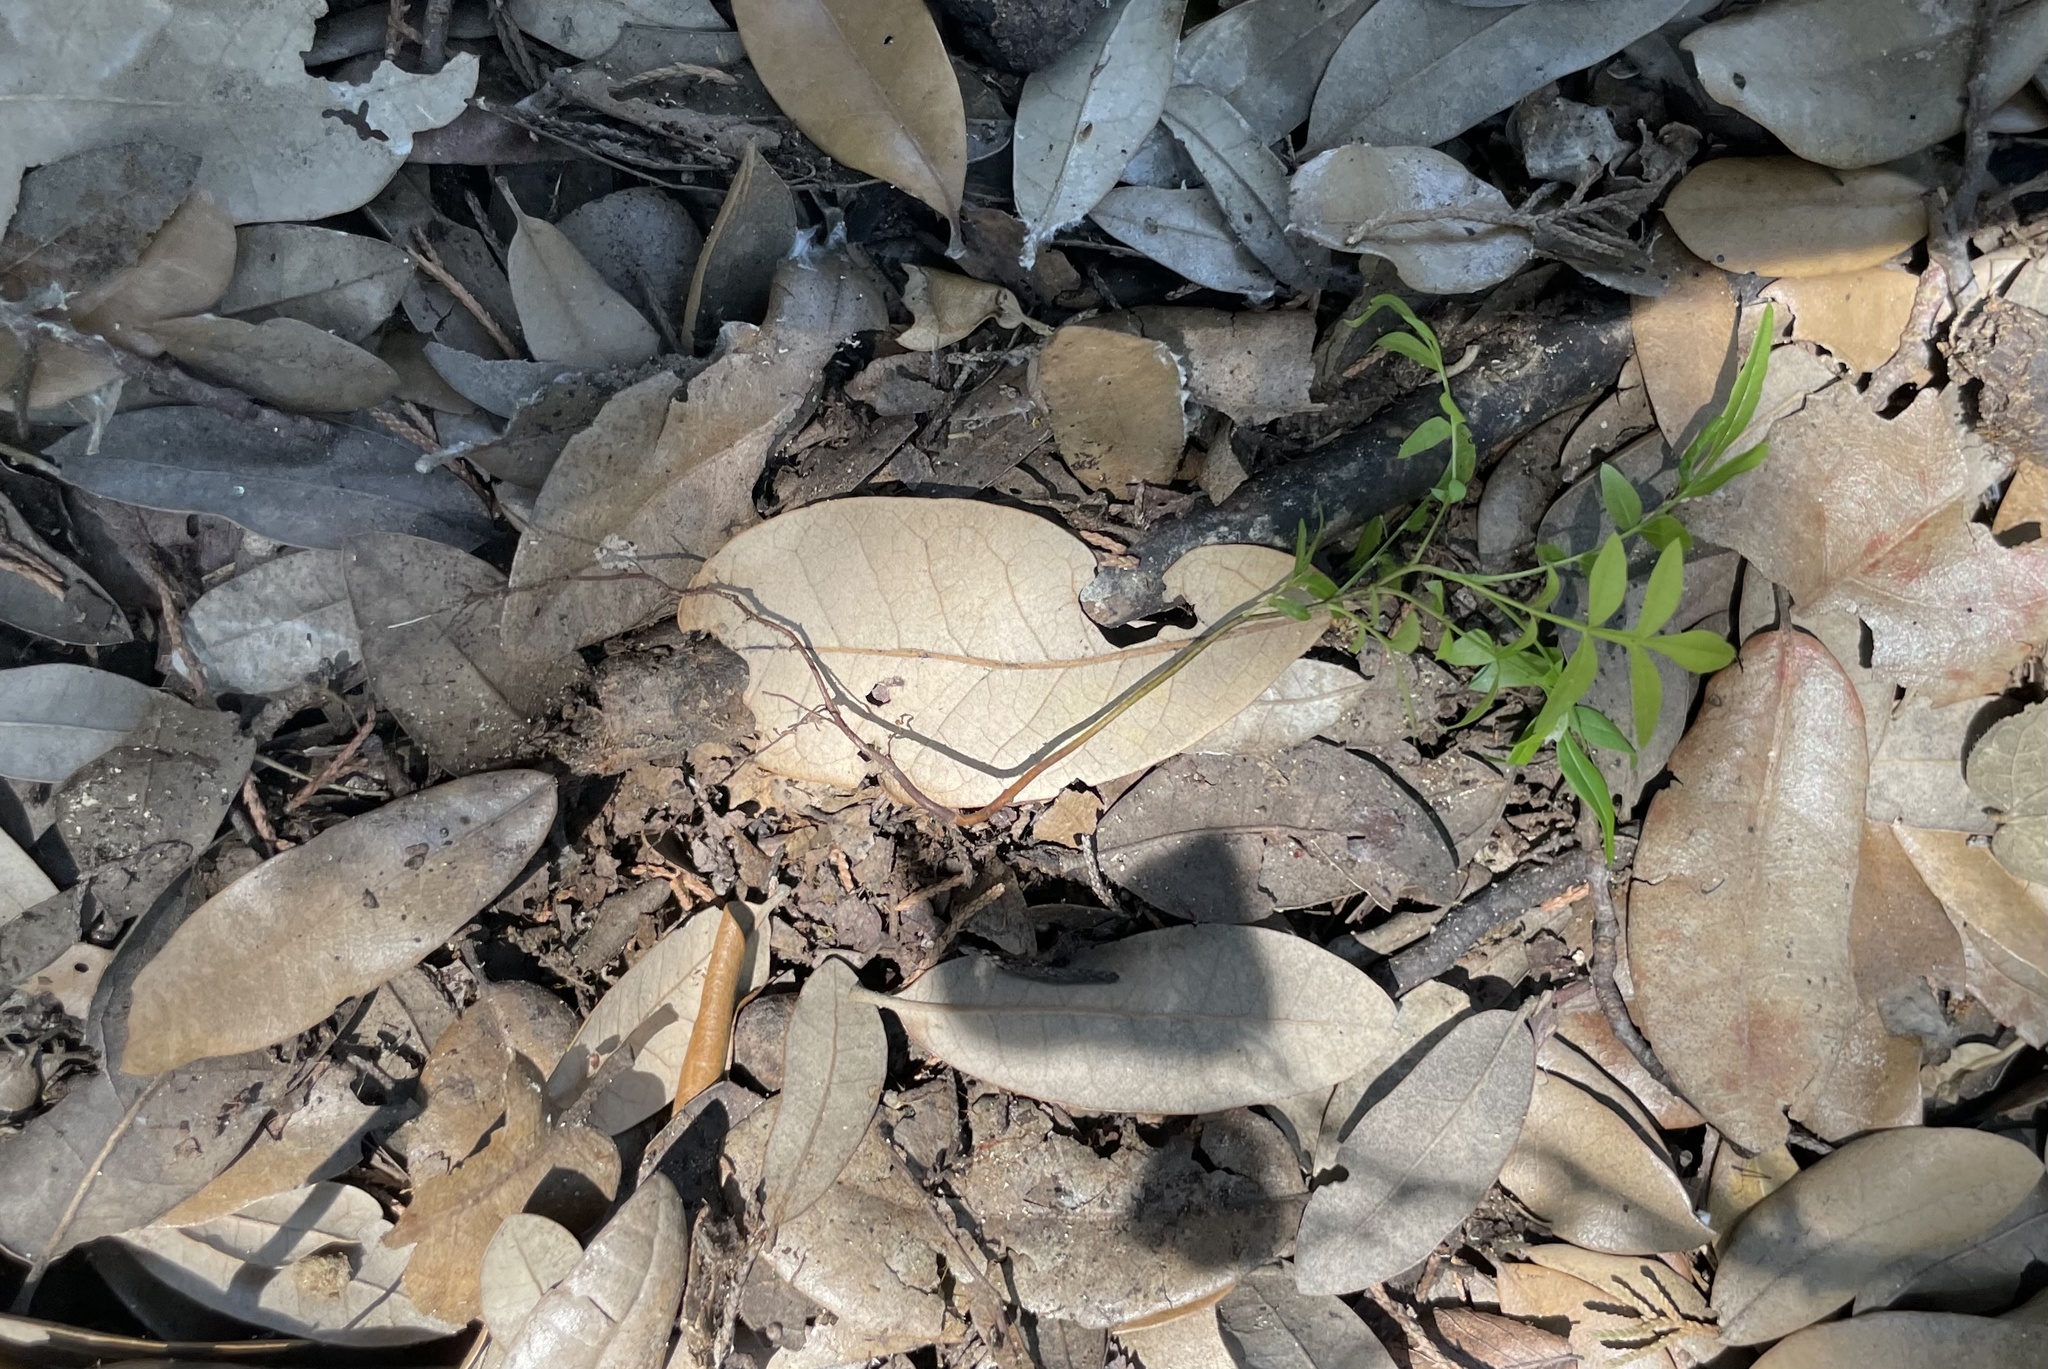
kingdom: Plantae
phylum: Tracheophyta
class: Magnoliopsida
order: Sapindales
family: Anacardiaceae
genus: Pistacia
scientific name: Pistacia chinensis
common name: Chinese pistache
